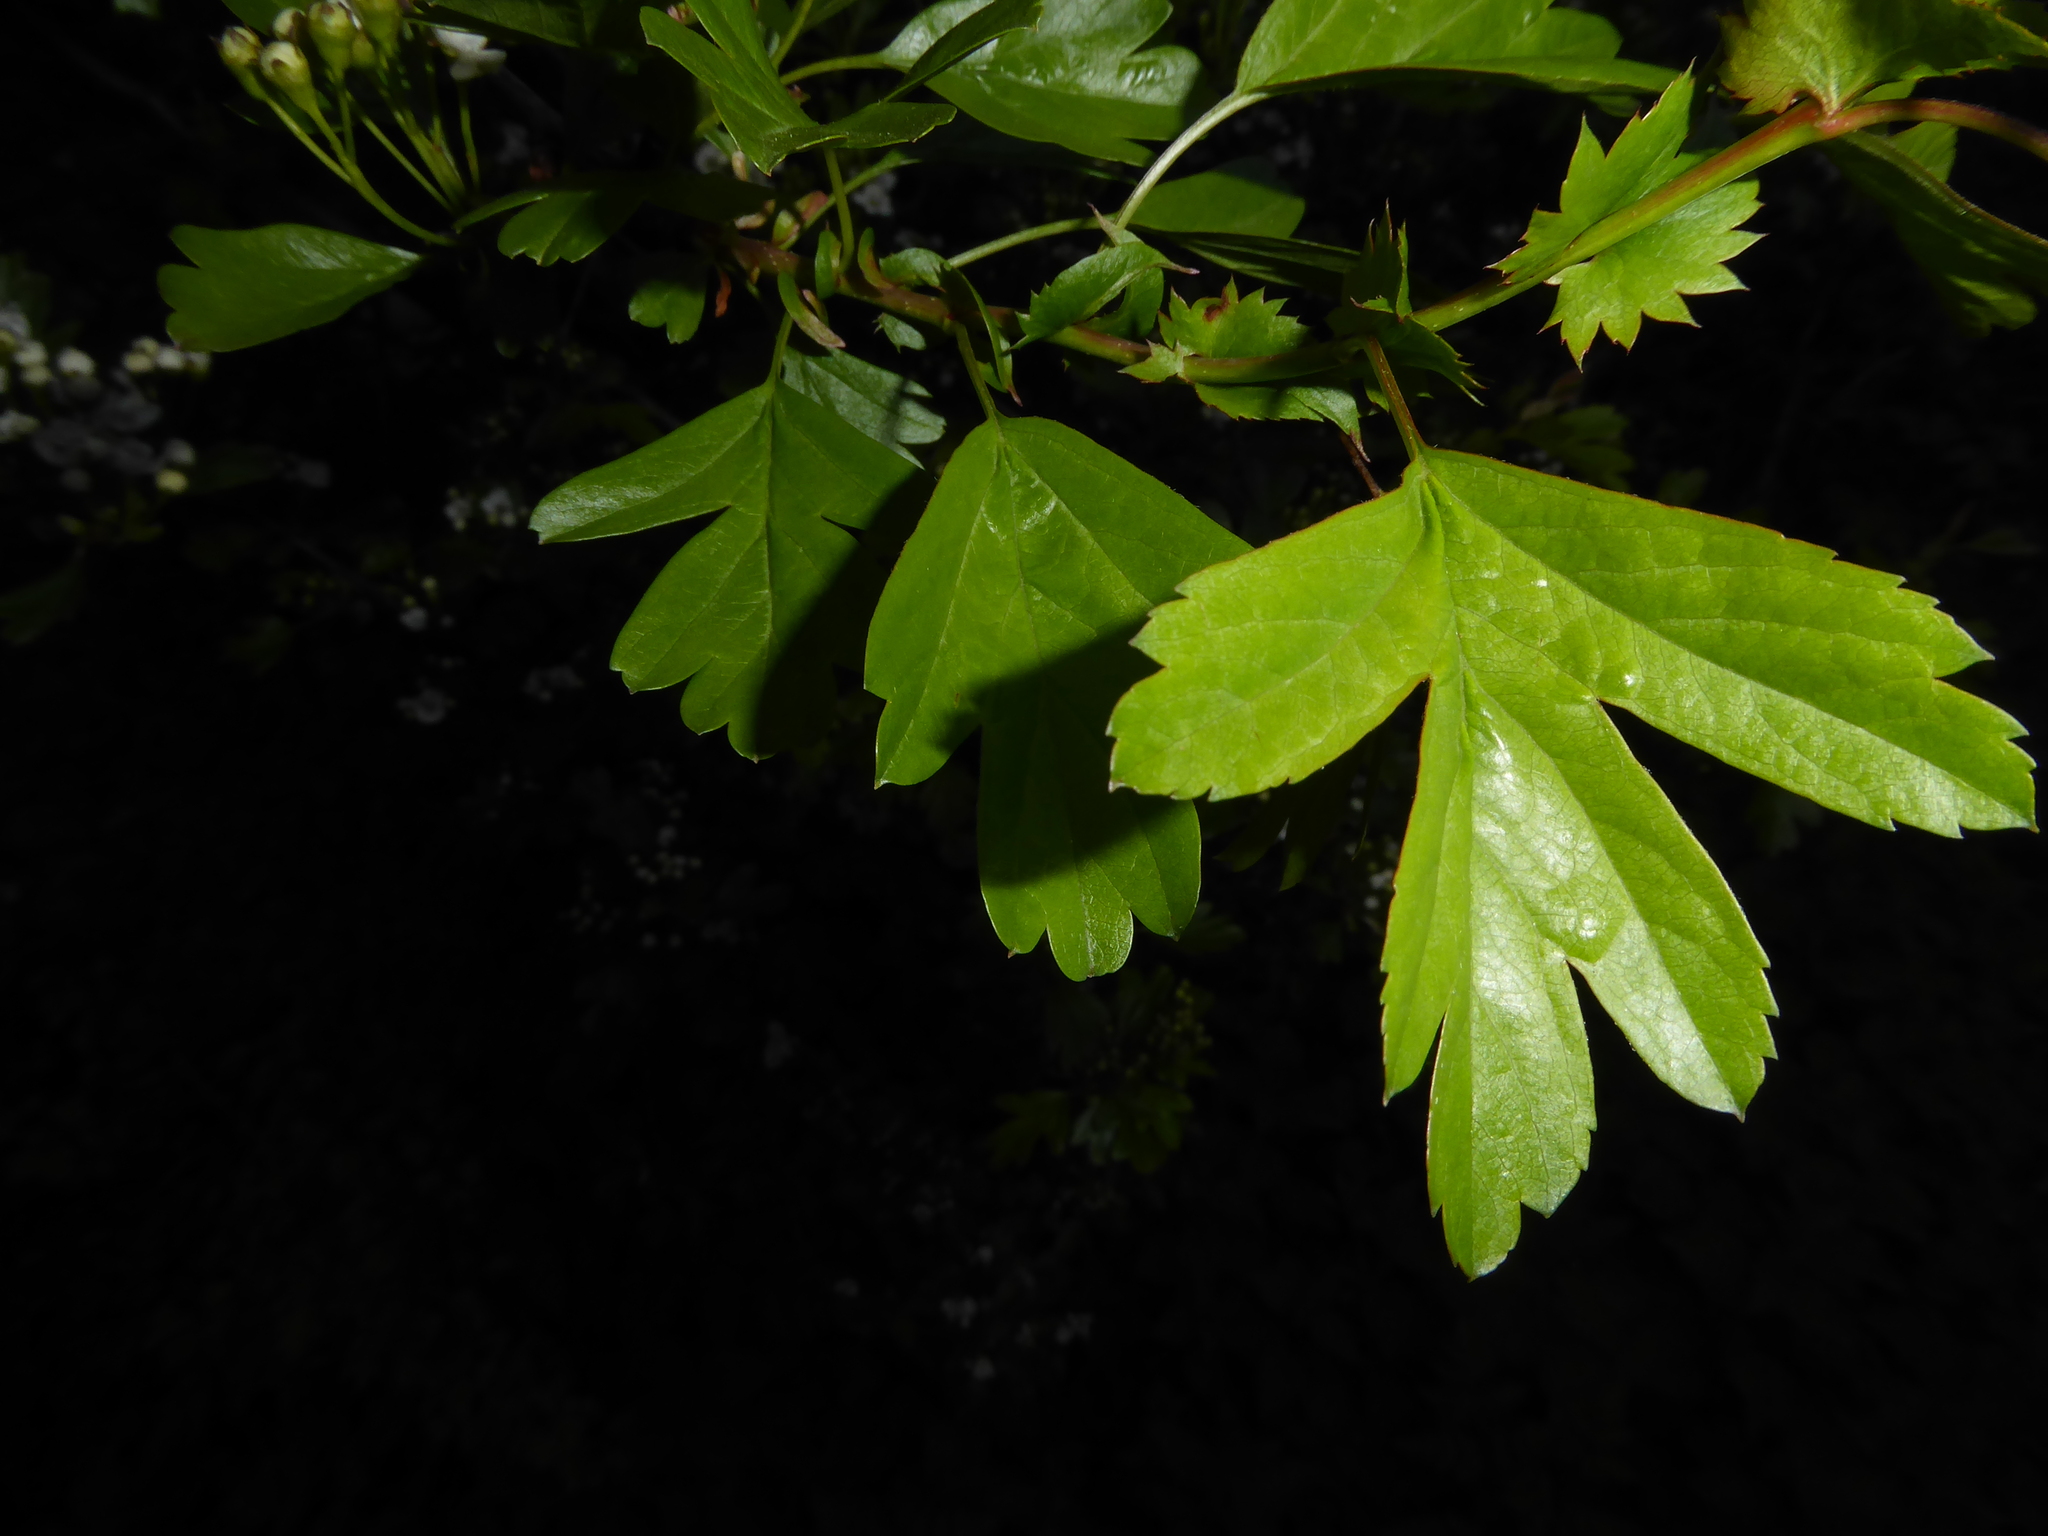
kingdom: Plantae
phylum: Tracheophyta
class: Magnoliopsida
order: Rosales
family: Rosaceae
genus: Crataegus
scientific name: Crataegus monogyna
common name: Hawthorn
